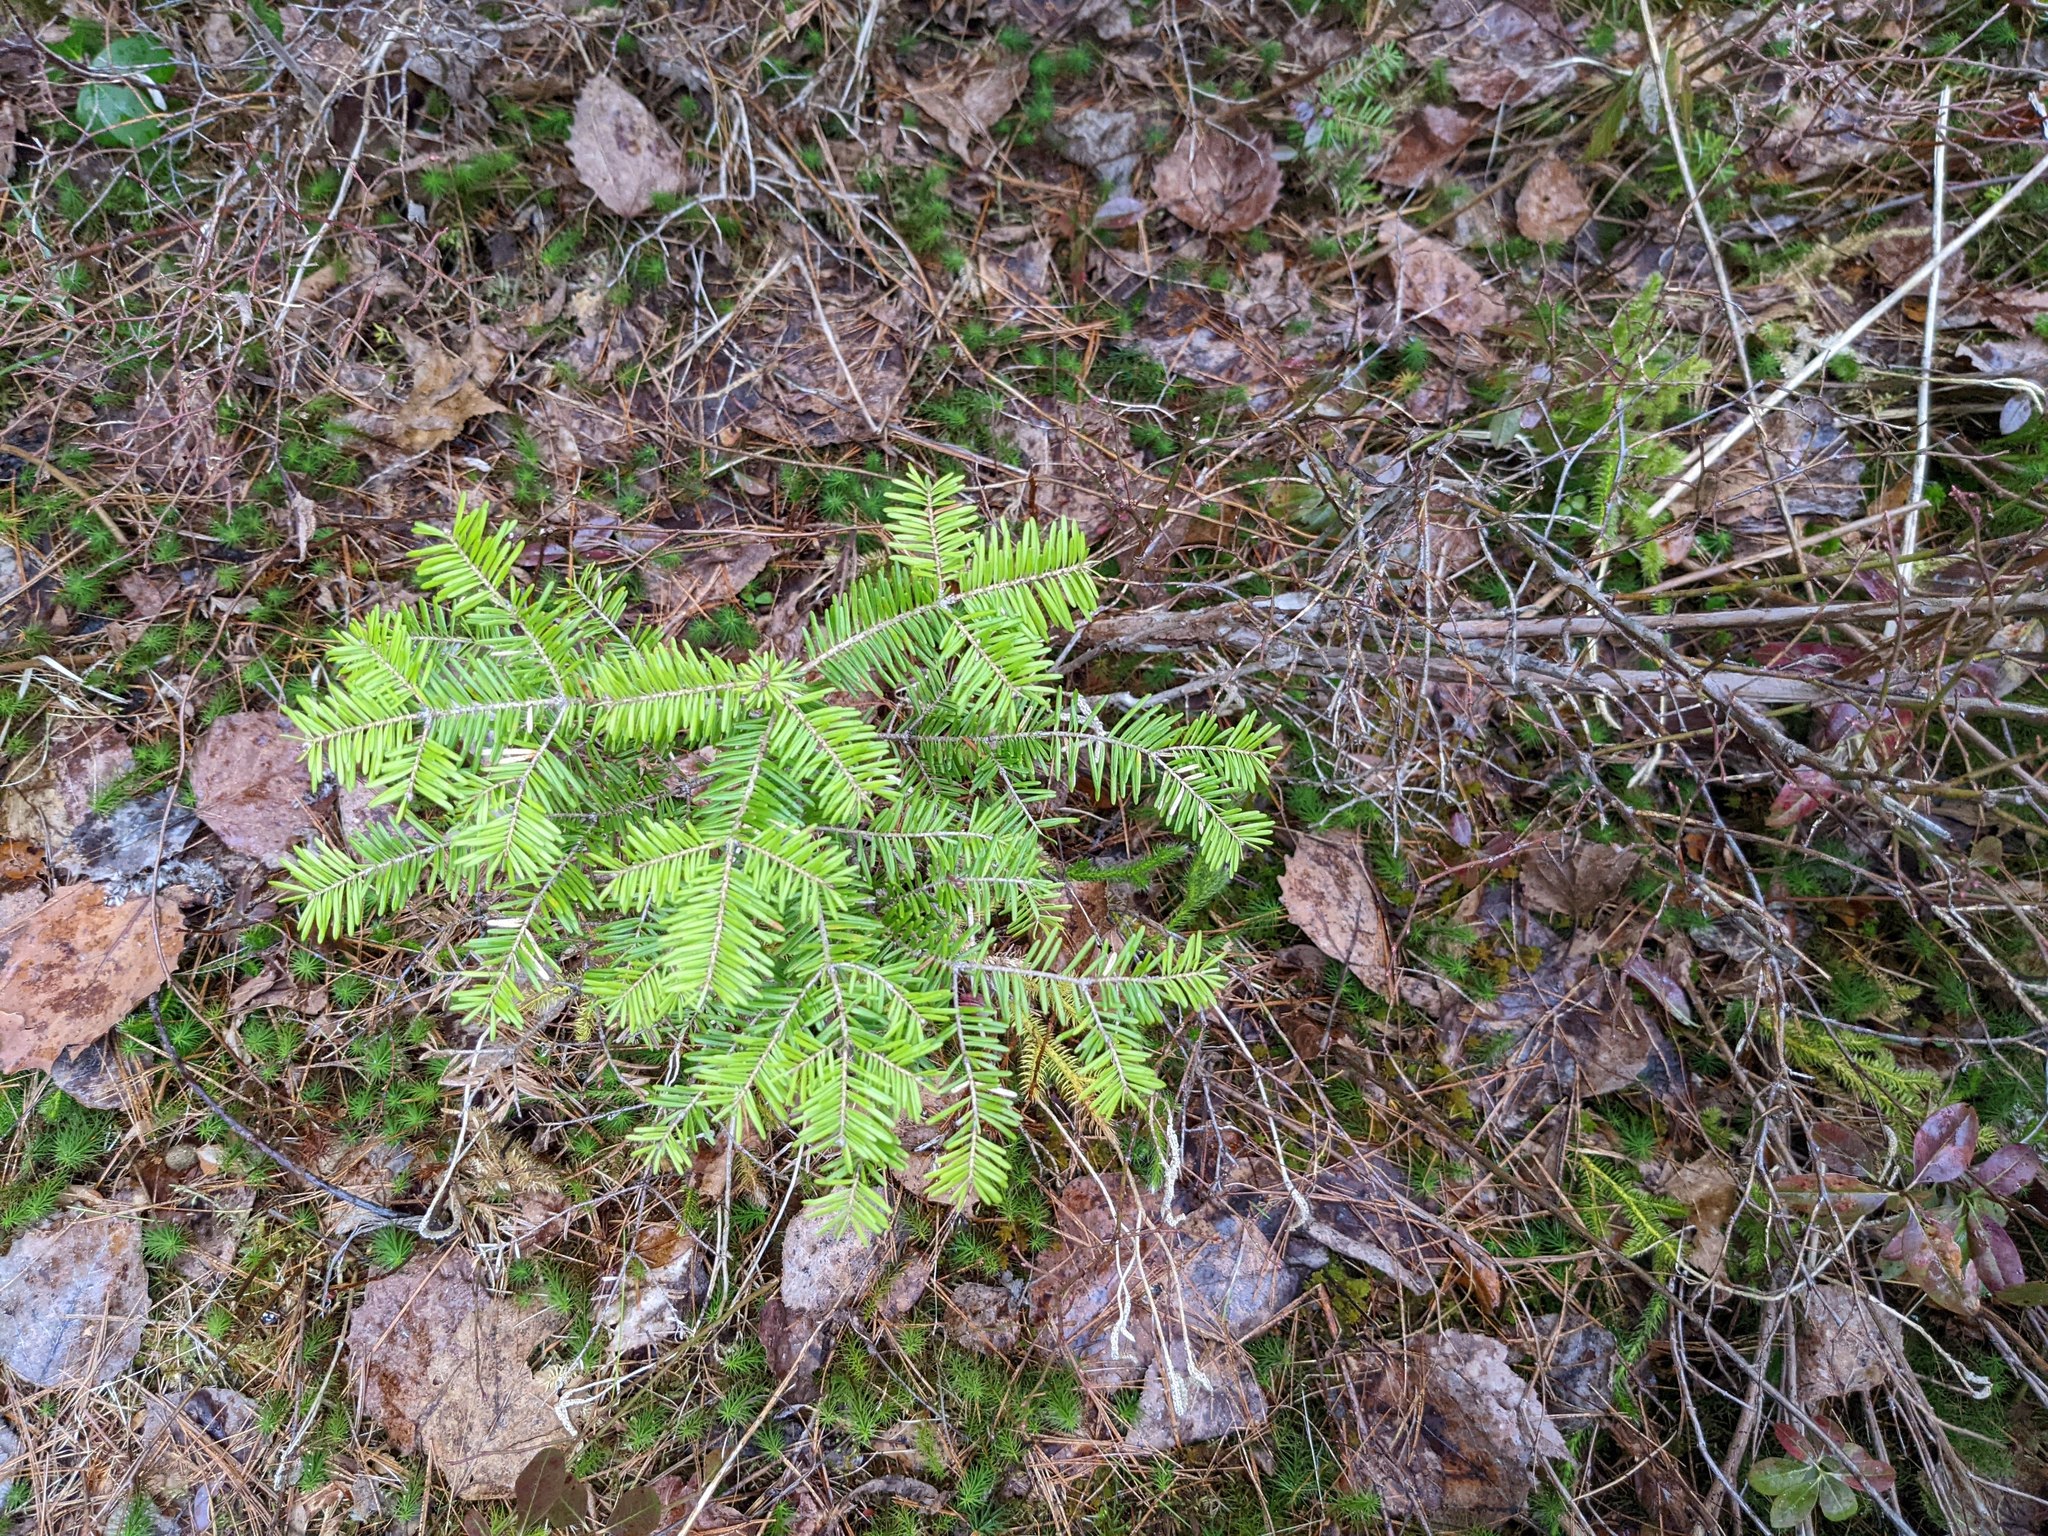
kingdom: Plantae
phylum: Tracheophyta
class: Pinopsida
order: Pinales
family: Pinaceae
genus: Abies
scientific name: Abies balsamea
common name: Balsam fir
